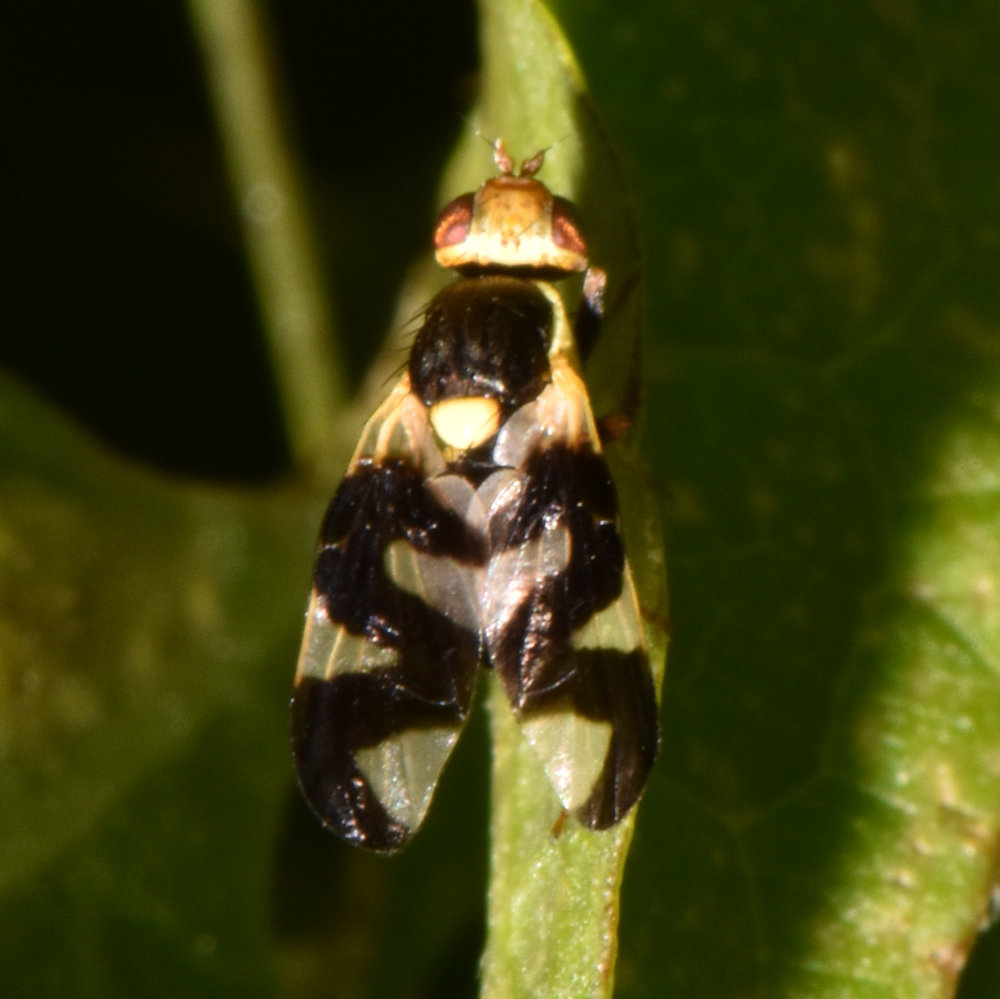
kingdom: Animalia
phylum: Arthropoda
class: Insecta
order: Diptera
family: Tephritidae
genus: Urophora
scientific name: Urophora cardui
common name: Fruit fly
